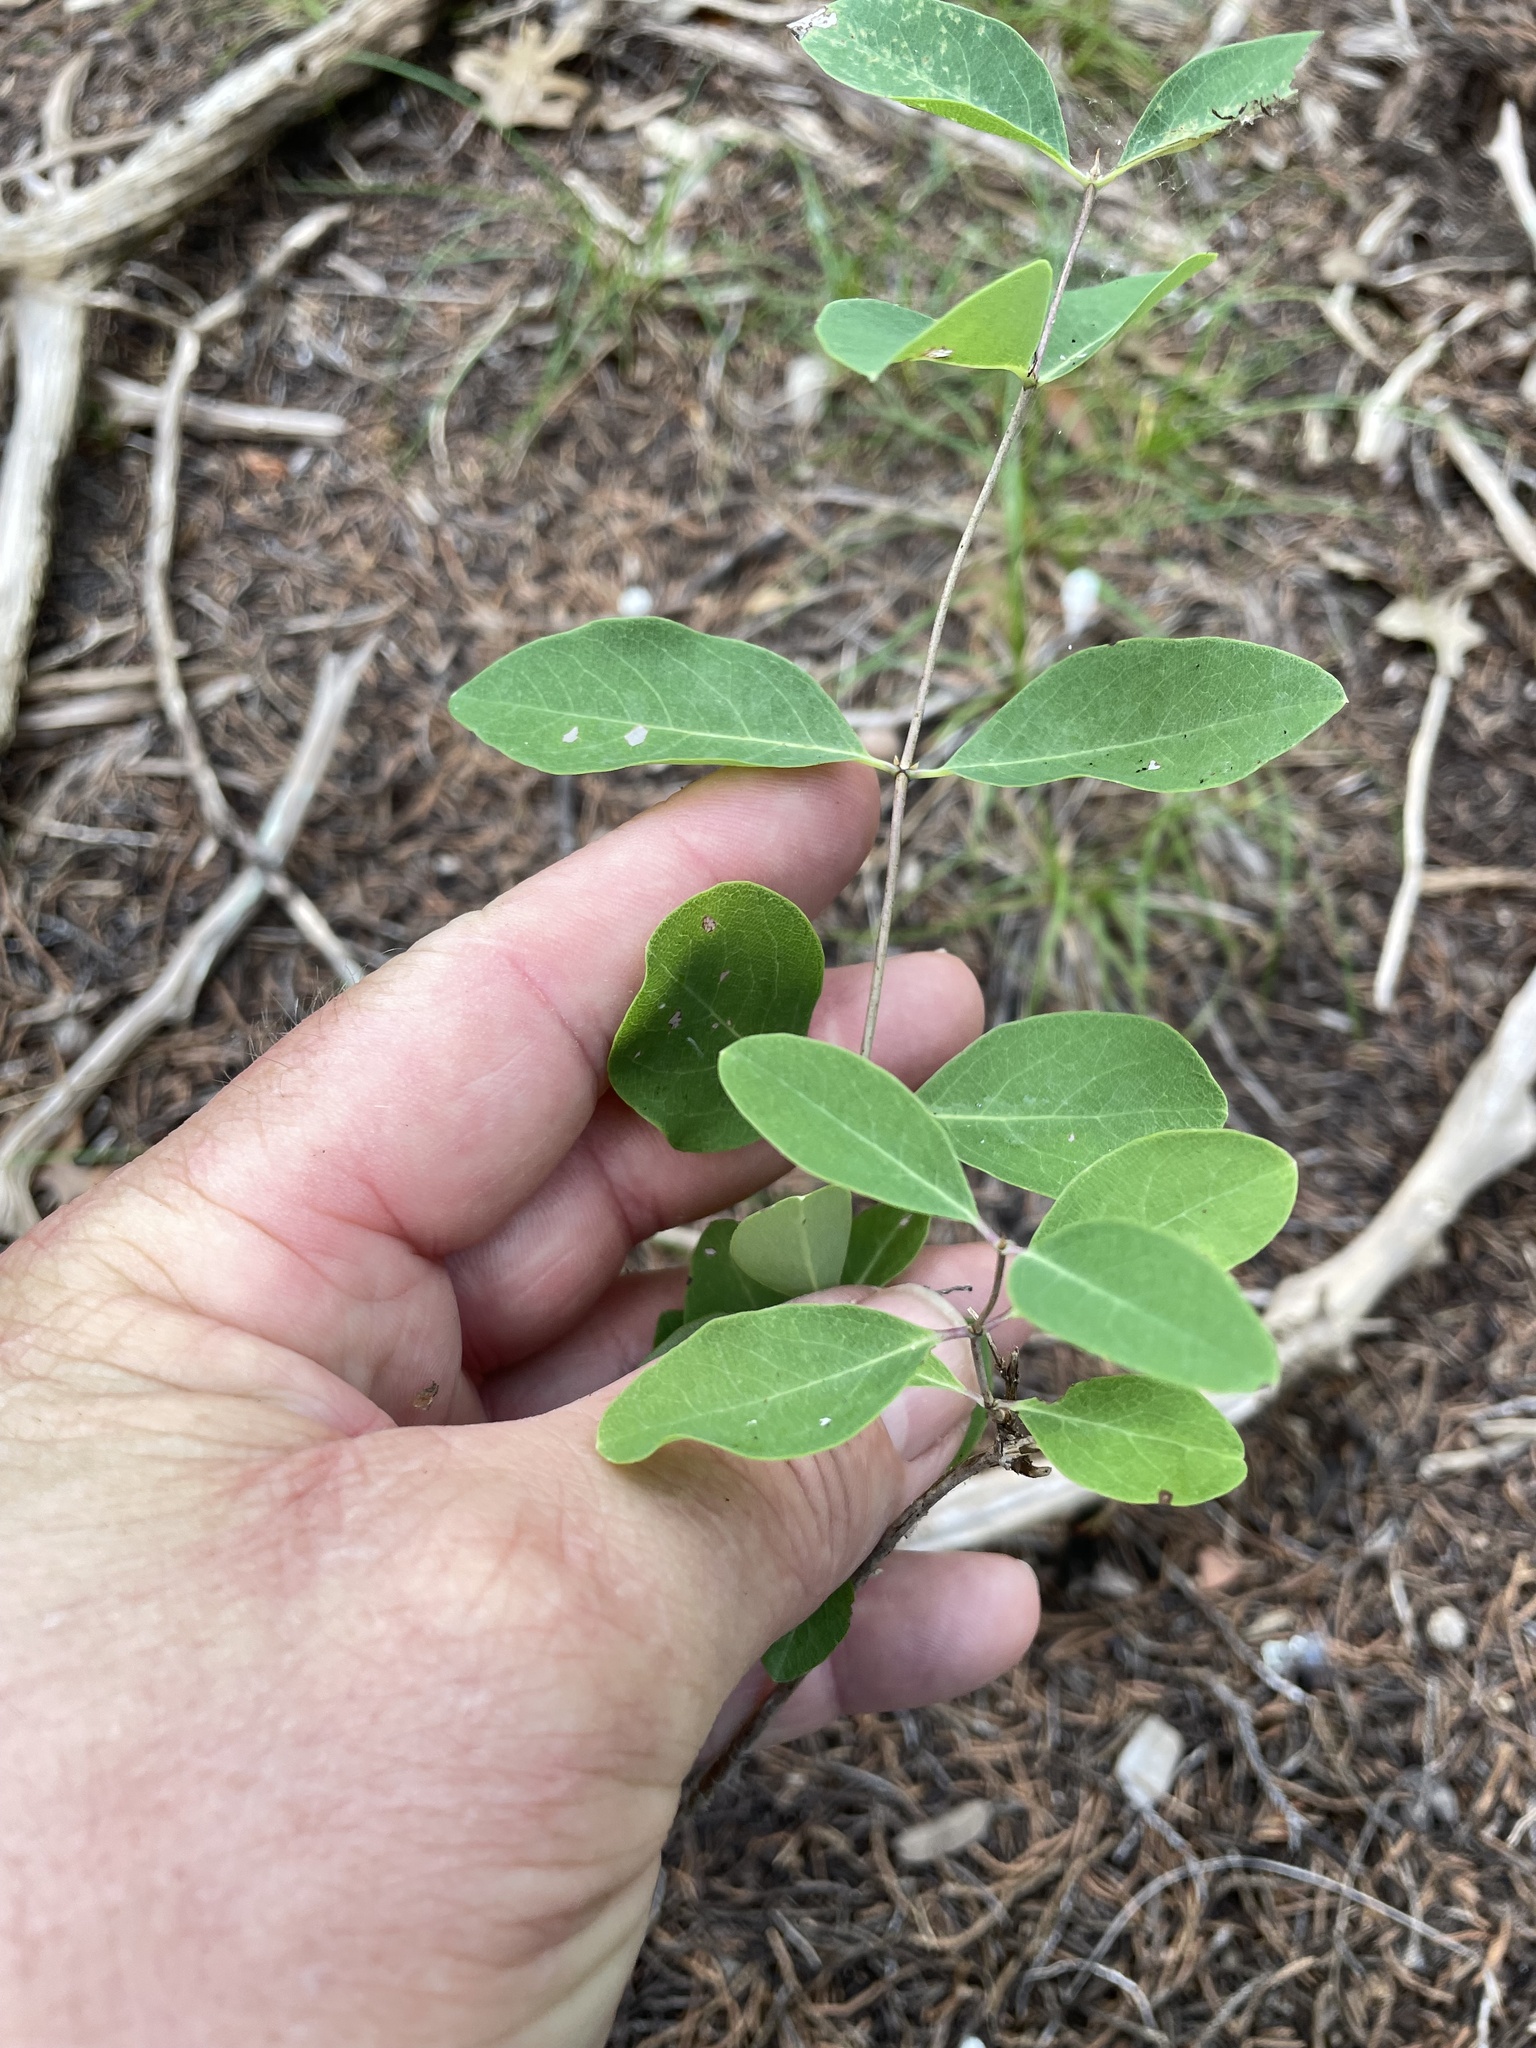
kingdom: Plantae
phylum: Tracheophyta
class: Magnoliopsida
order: Dipsacales
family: Caprifoliaceae
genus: Lonicera
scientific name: Lonicera albiflora
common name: White honeysuckle
